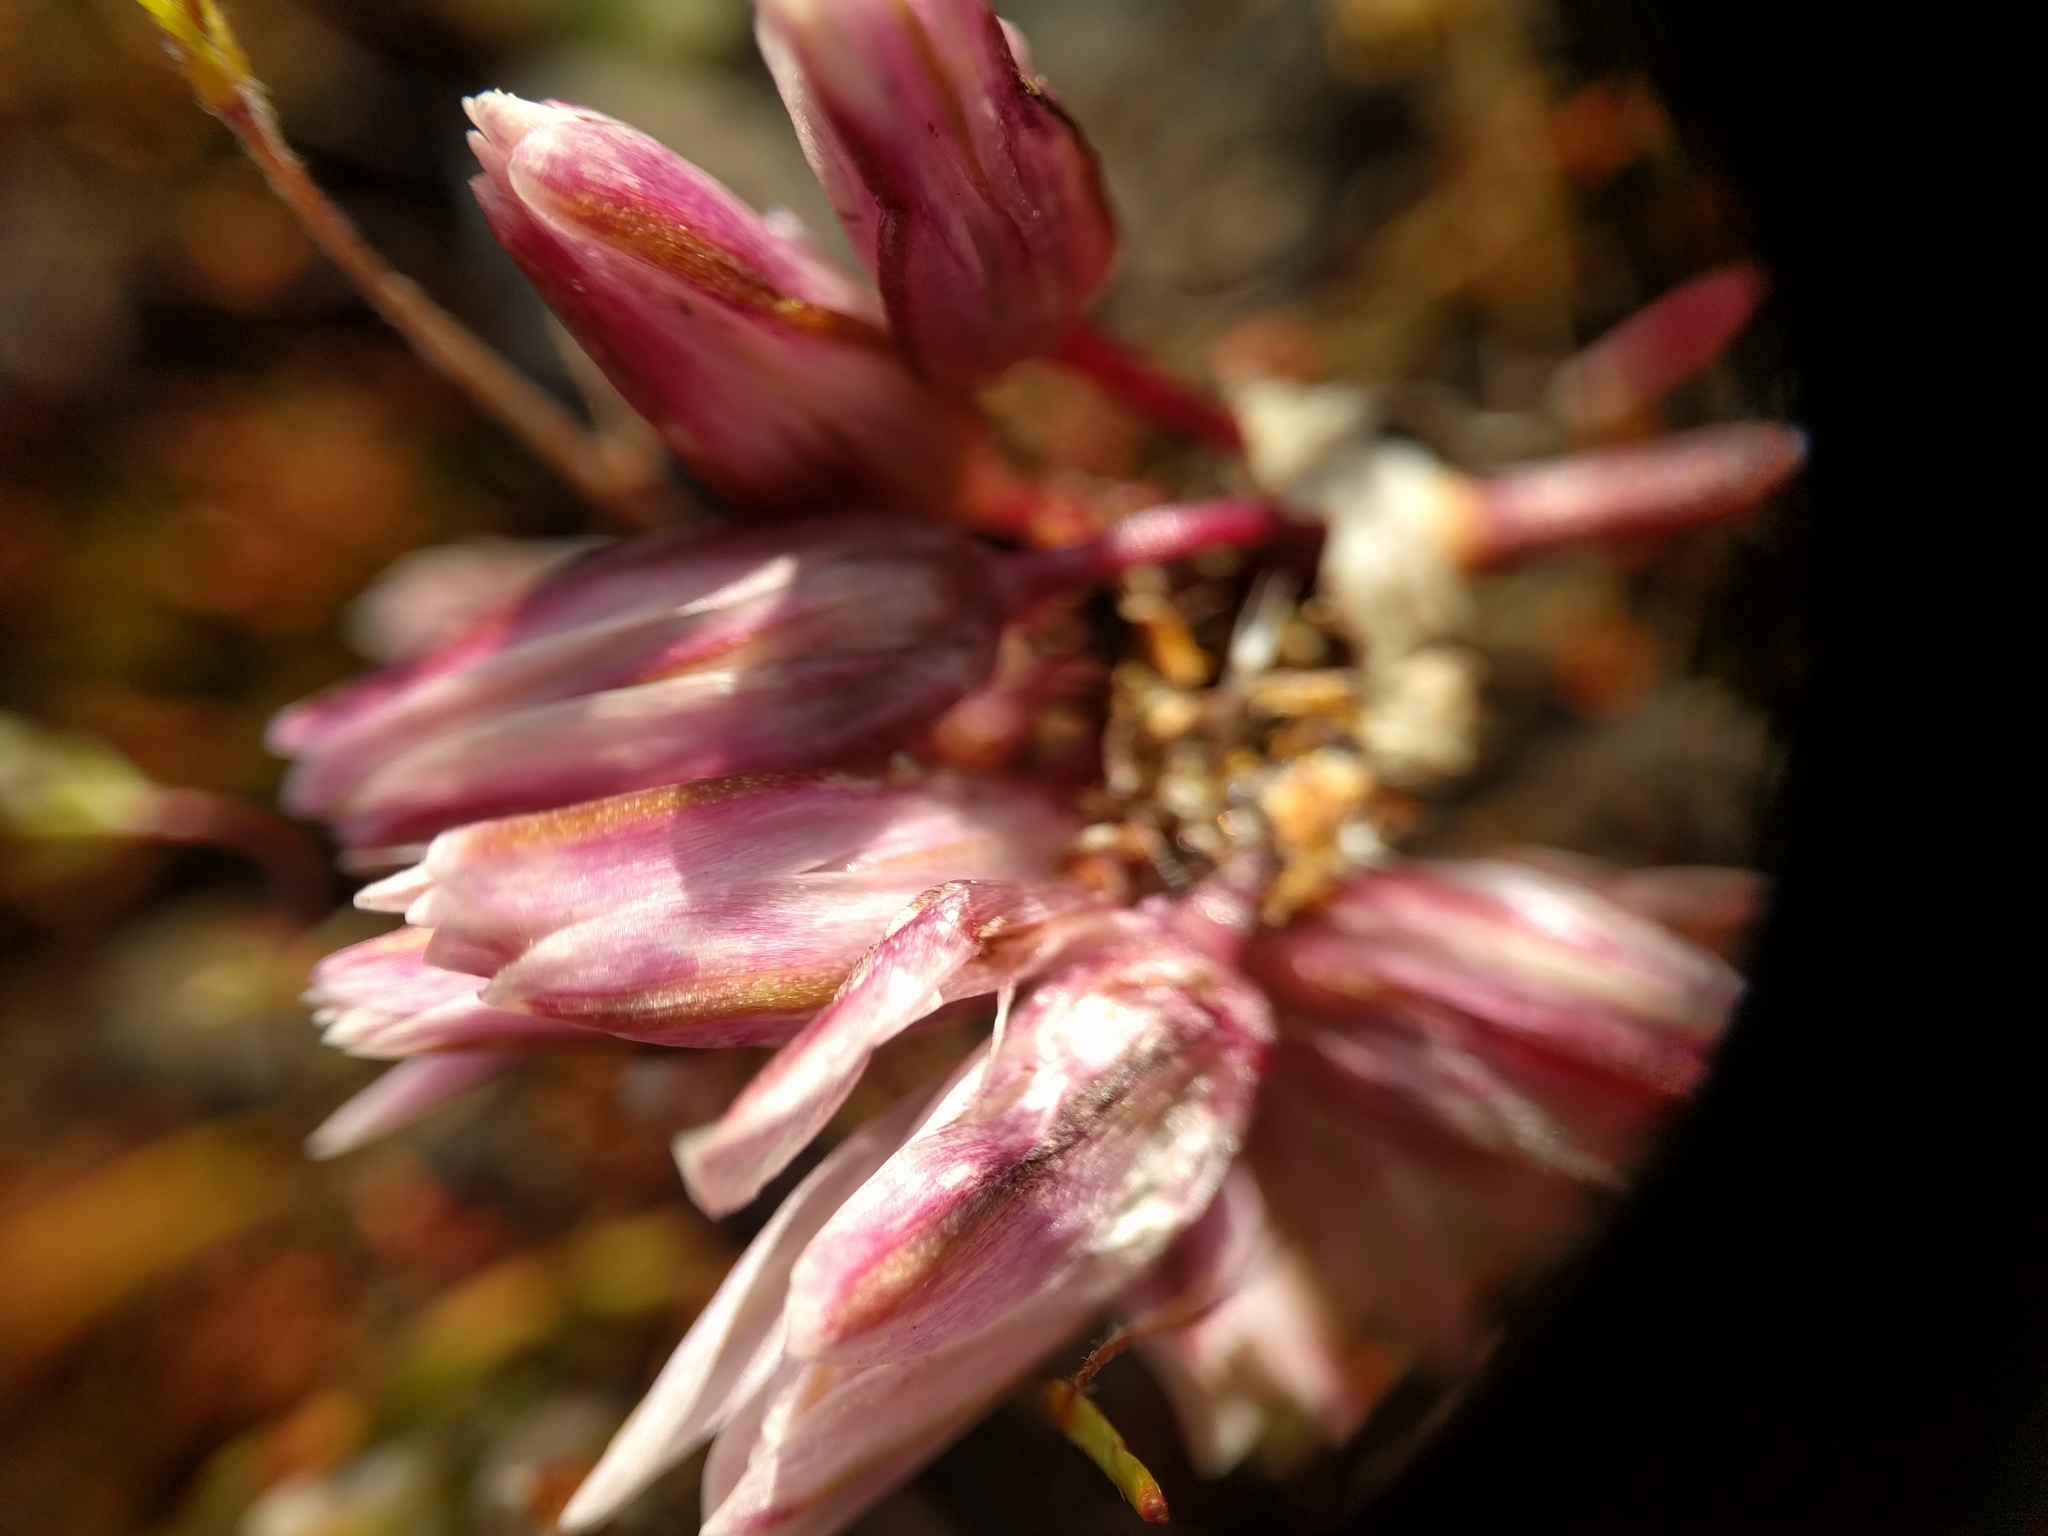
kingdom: Plantae
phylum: Tracheophyta
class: Liliopsida
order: Asparagales
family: Amaryllidaceae
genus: Allium
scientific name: Allium cratericola
